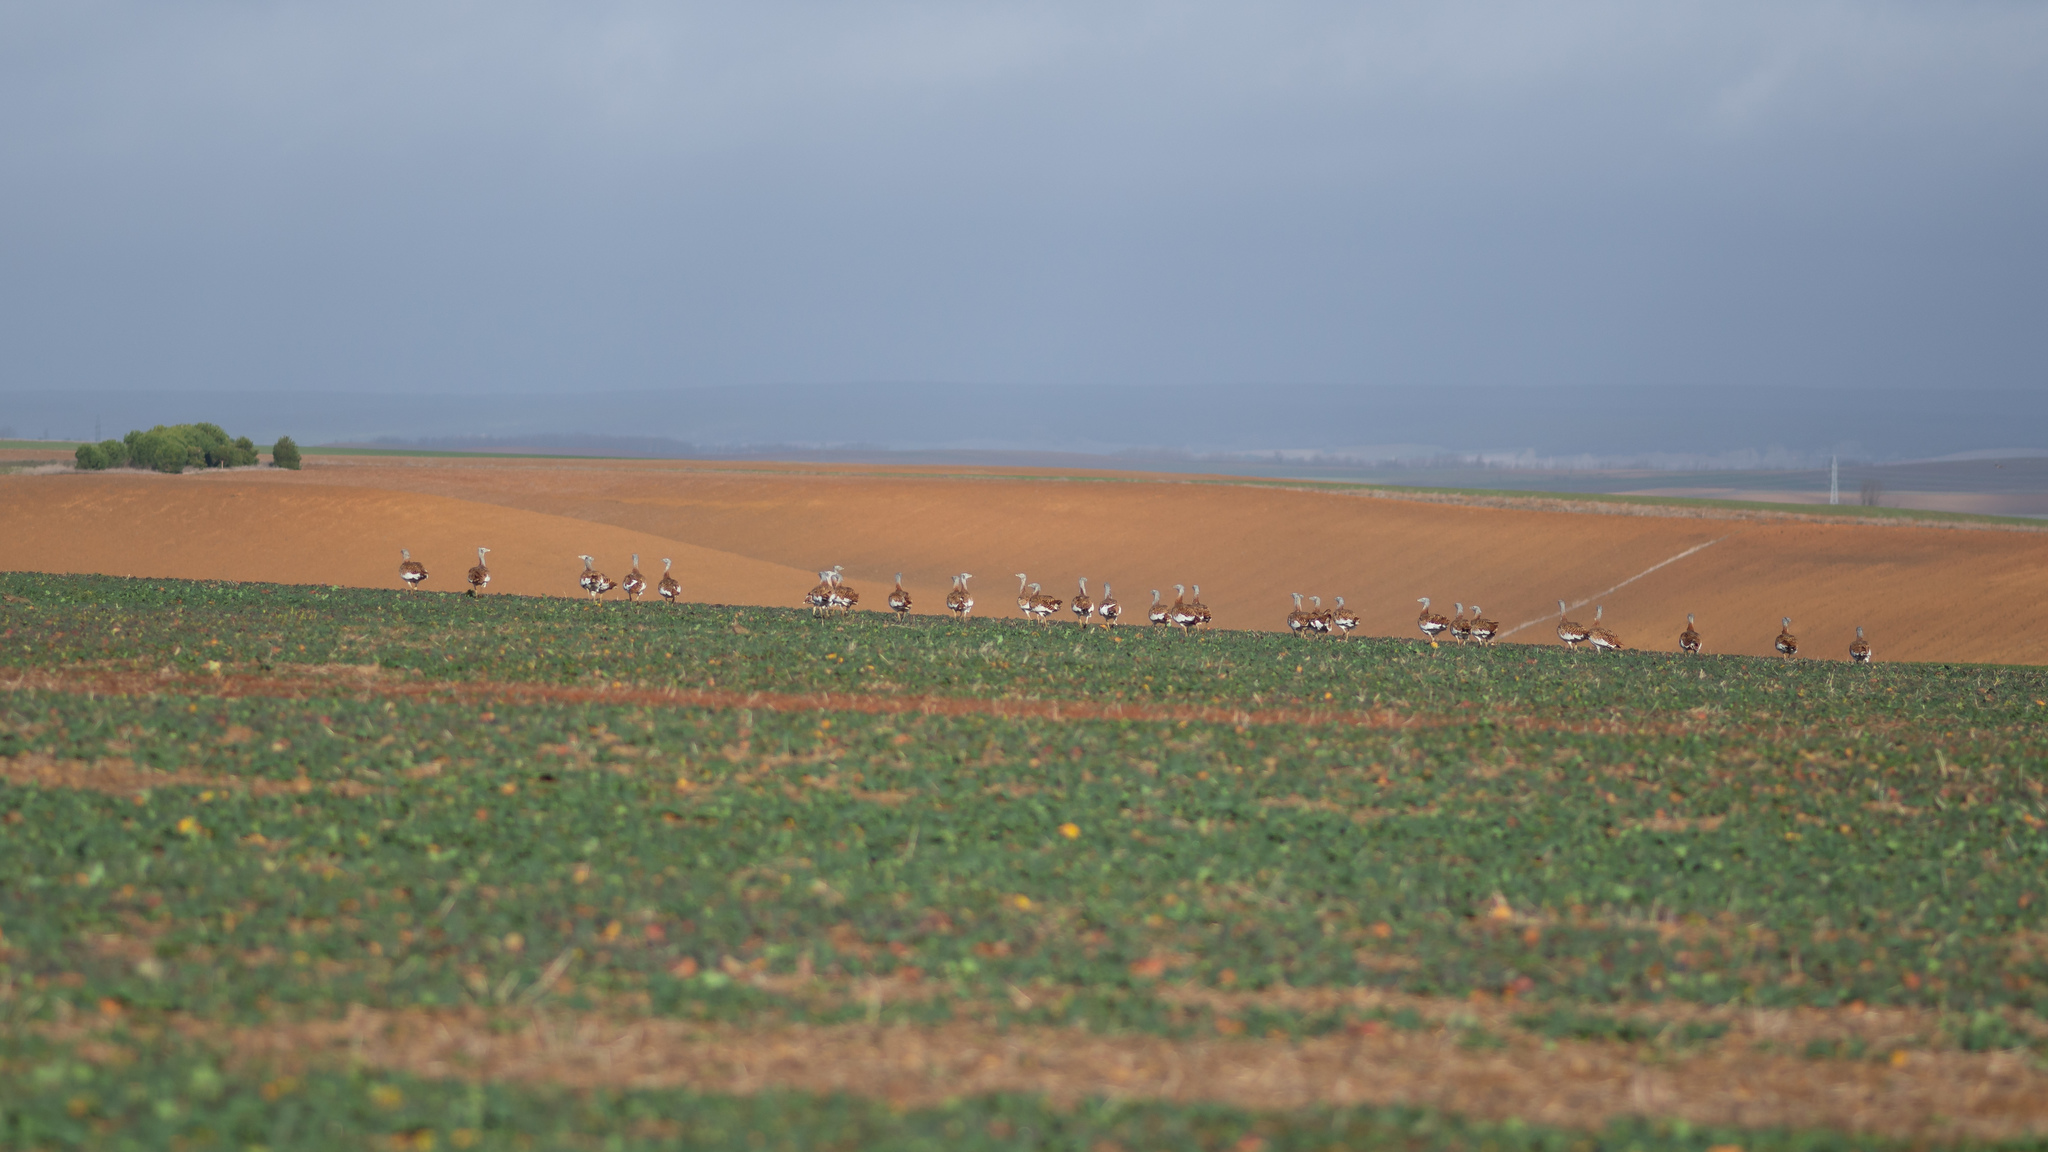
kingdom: Animalia
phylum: Chordata
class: Aves
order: Otidiformes
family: Otididae
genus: Otis
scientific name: Otis tarda
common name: Great bustard
